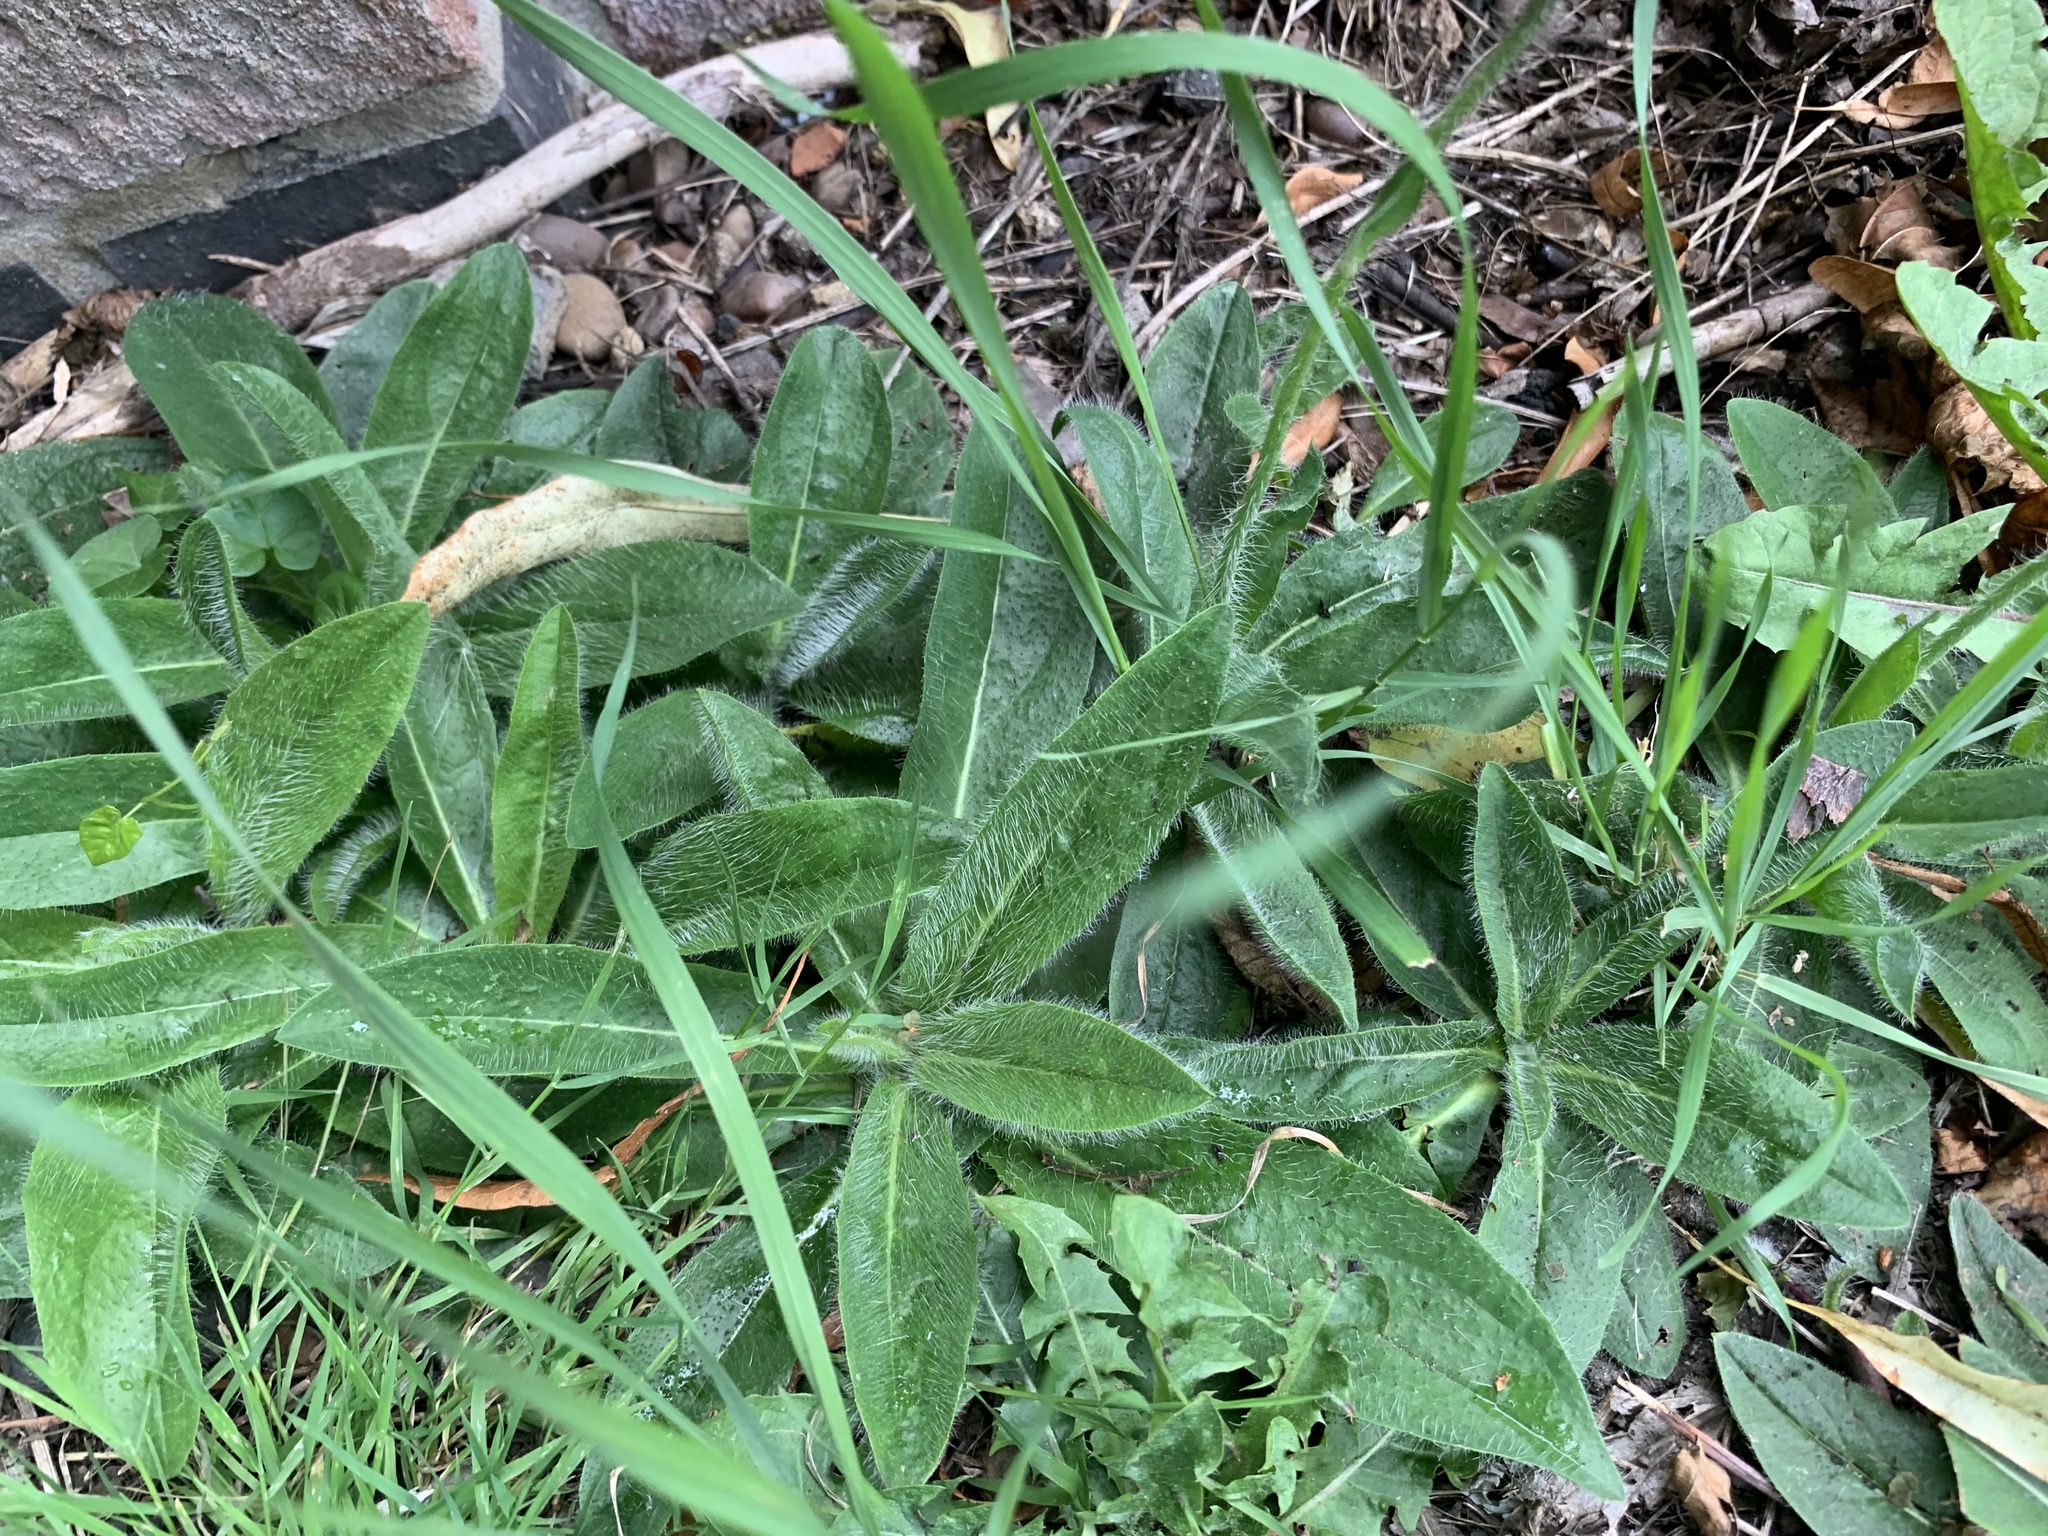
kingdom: Plantae
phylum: Tracheophyta
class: Magnoliopsida
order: Asterales
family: Asteraceae
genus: Pilosella
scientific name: Pilosella aurantiaca
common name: Fox-and-cubs
